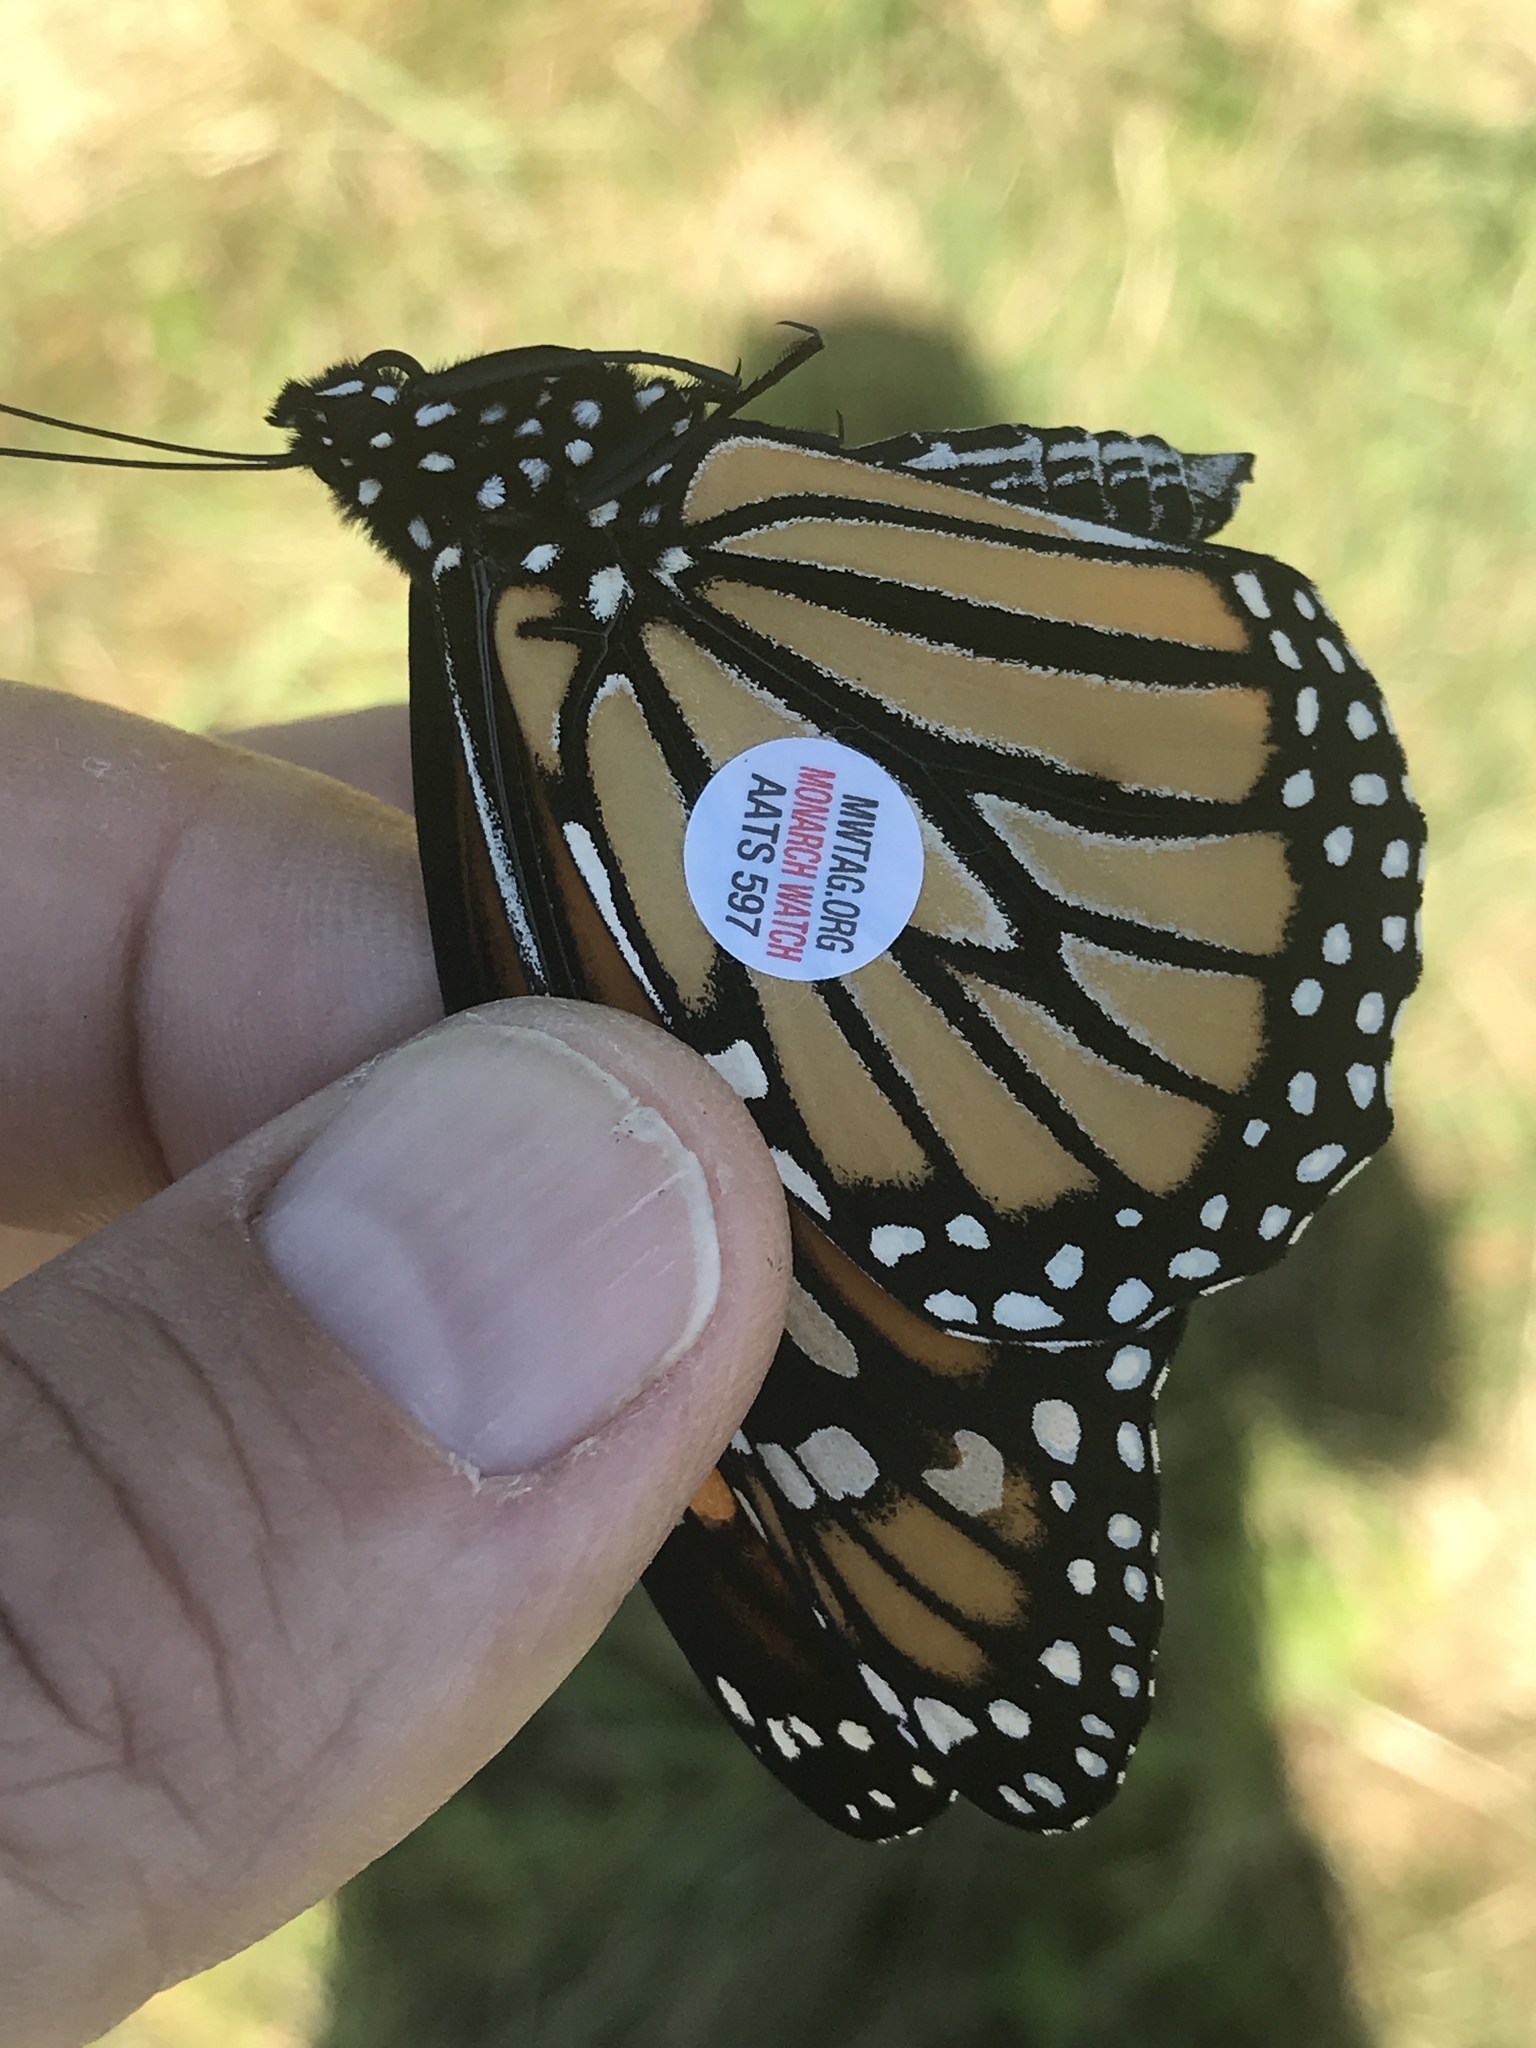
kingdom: Animalia
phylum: Arthropoda
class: Insecta
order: Lepidoptera
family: Nymphalidae
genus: Danaus
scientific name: Danaus plexippus
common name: Monarch
